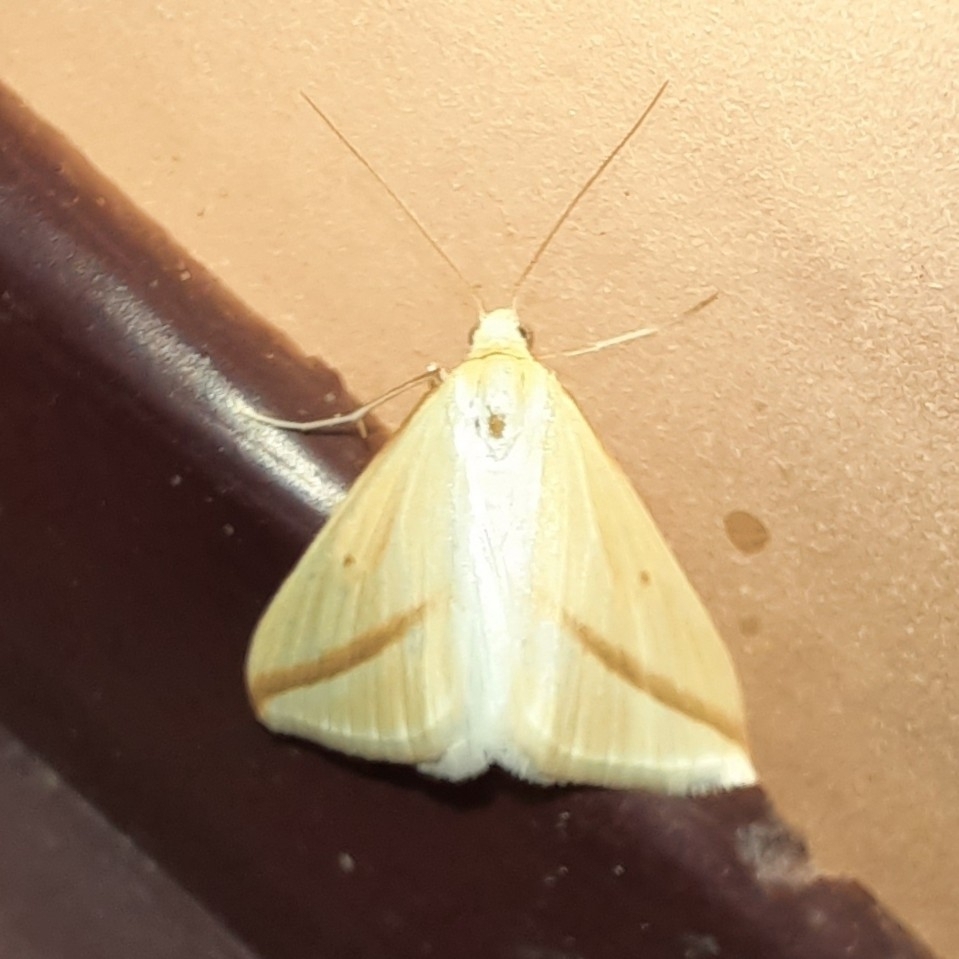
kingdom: Animalia
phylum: Arthropoda
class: Insecta
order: Lepidoptera
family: Geometridae
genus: Rhodometra
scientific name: Rhodometra sacraria
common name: Vestal
